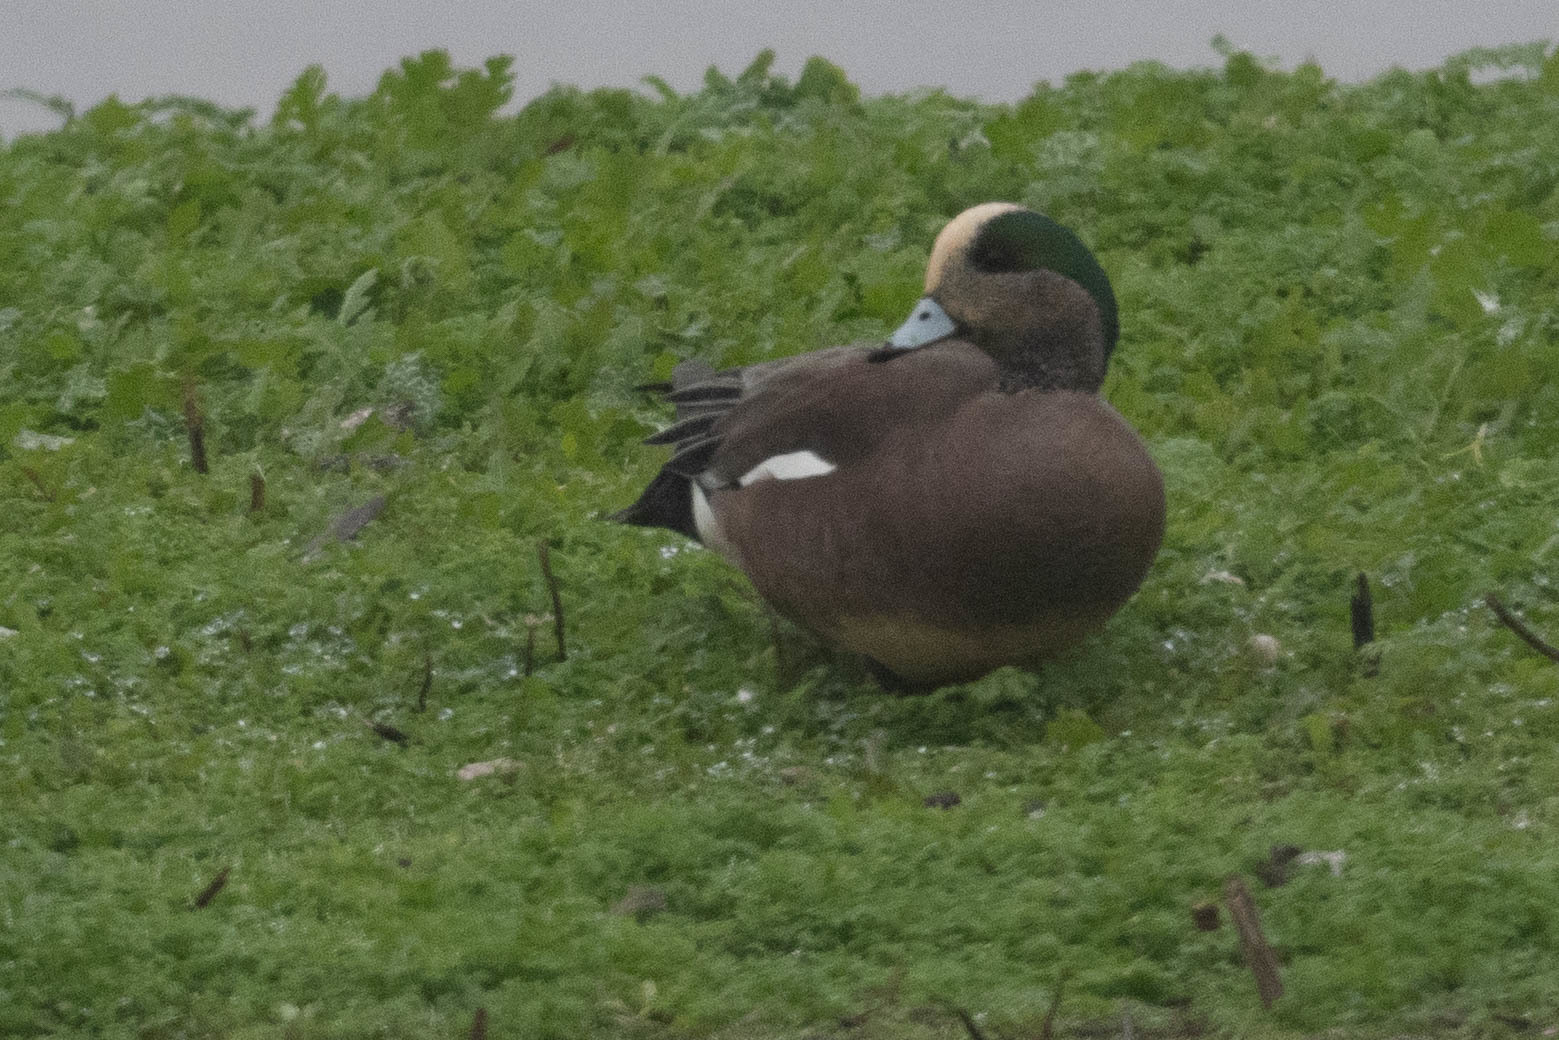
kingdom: Animalia
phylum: Chordata
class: Aves
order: Anseriformes
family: Anatidae
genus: Mareca
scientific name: Mareca americana
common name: American wigeon
